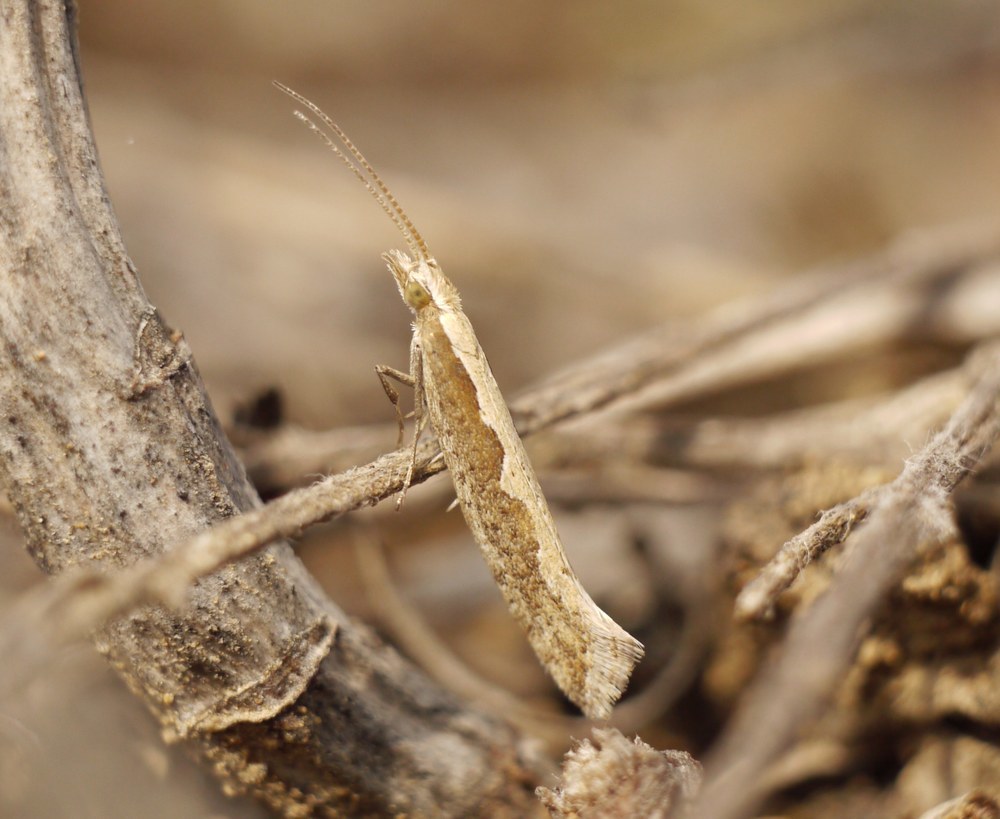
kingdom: Animalia
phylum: Arthropoda
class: Insecta
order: Lepidoptera
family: Plutellidae
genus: Plutella
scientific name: Plutella xylostella
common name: Diamond-back moth
